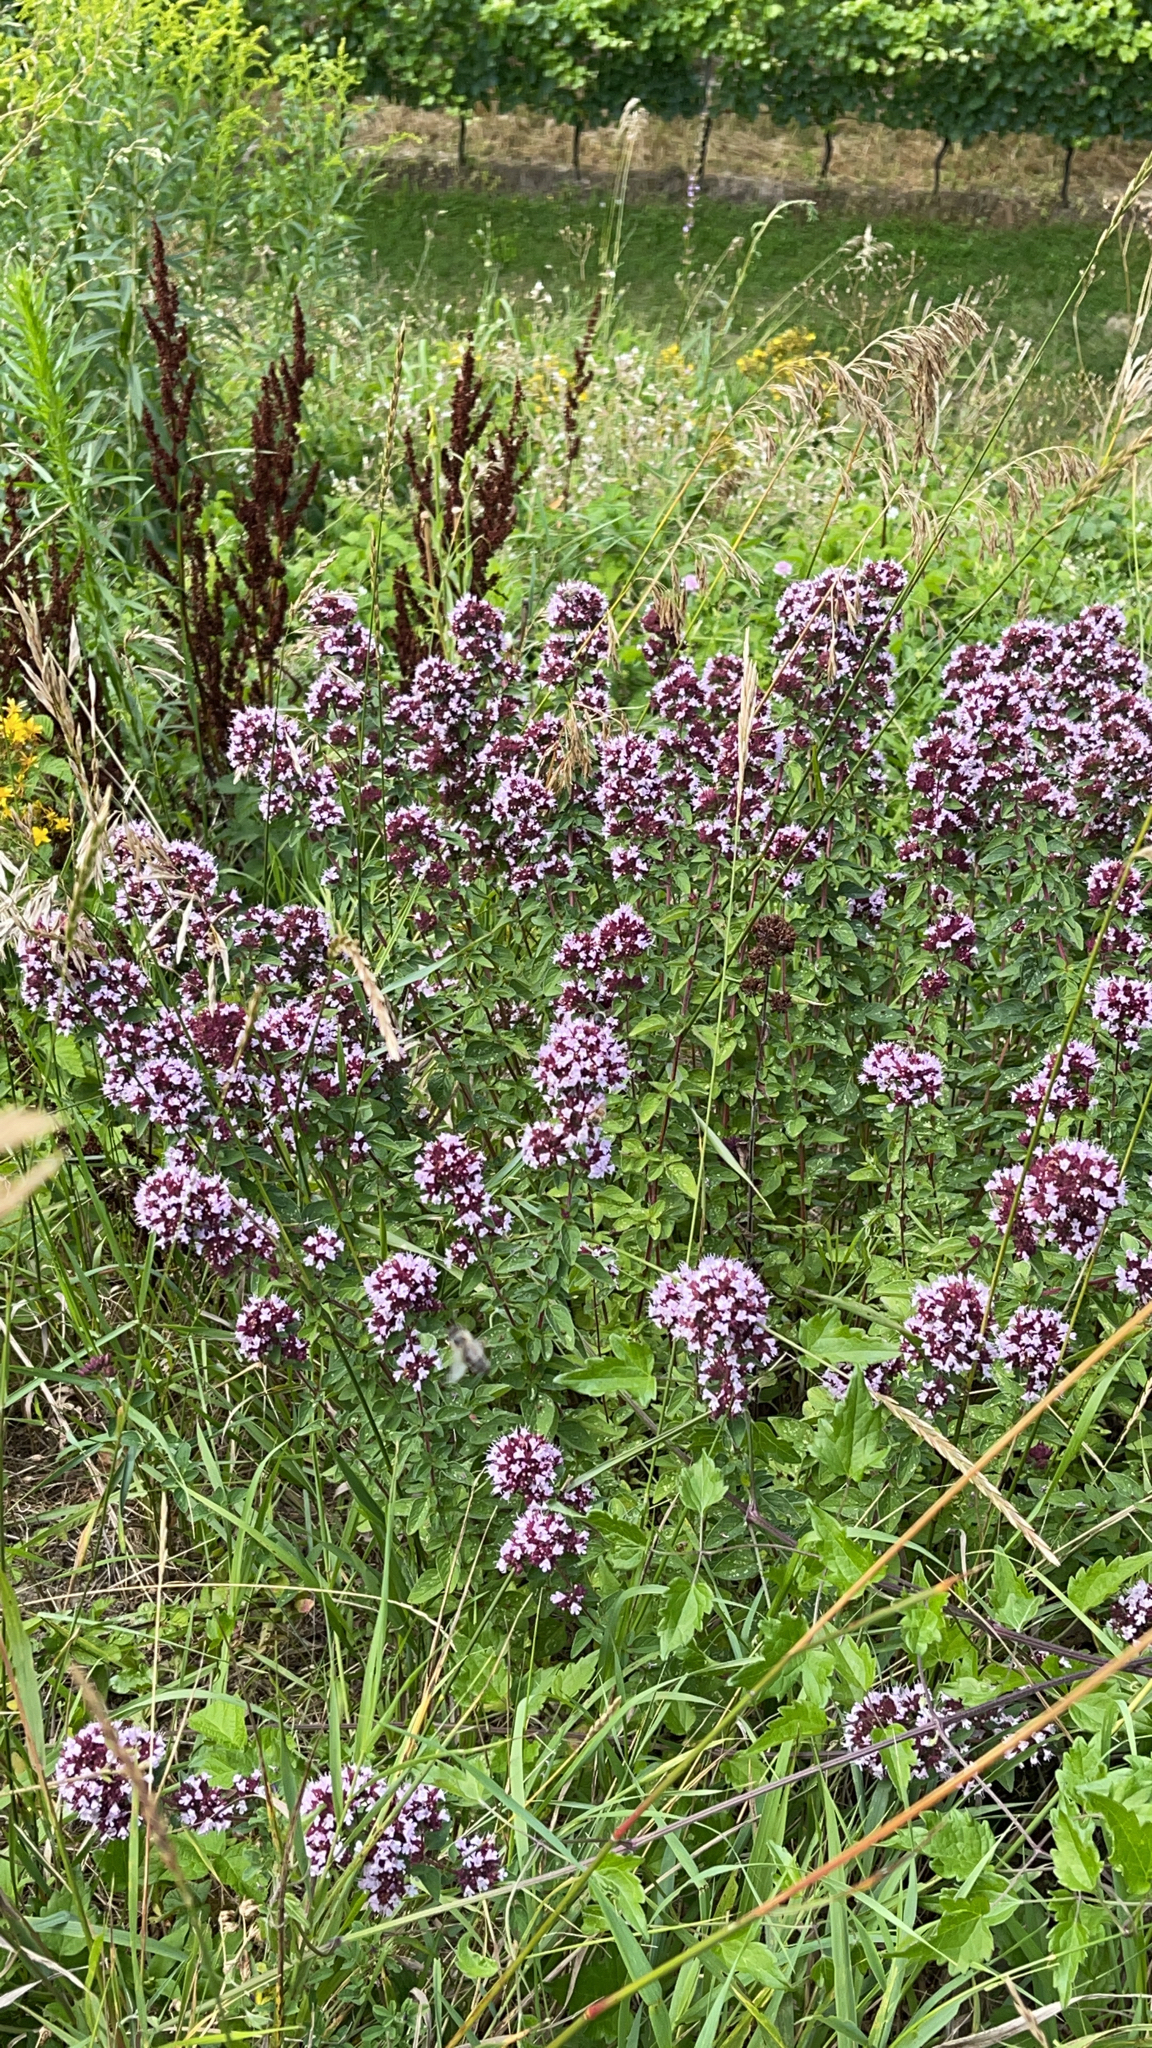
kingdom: Plantae
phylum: Tracheophyta
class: Magnoliopsida
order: Lamiales
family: Lamiaceae
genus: Origanum
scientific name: Origanum vulgare
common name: Wild marjoram
